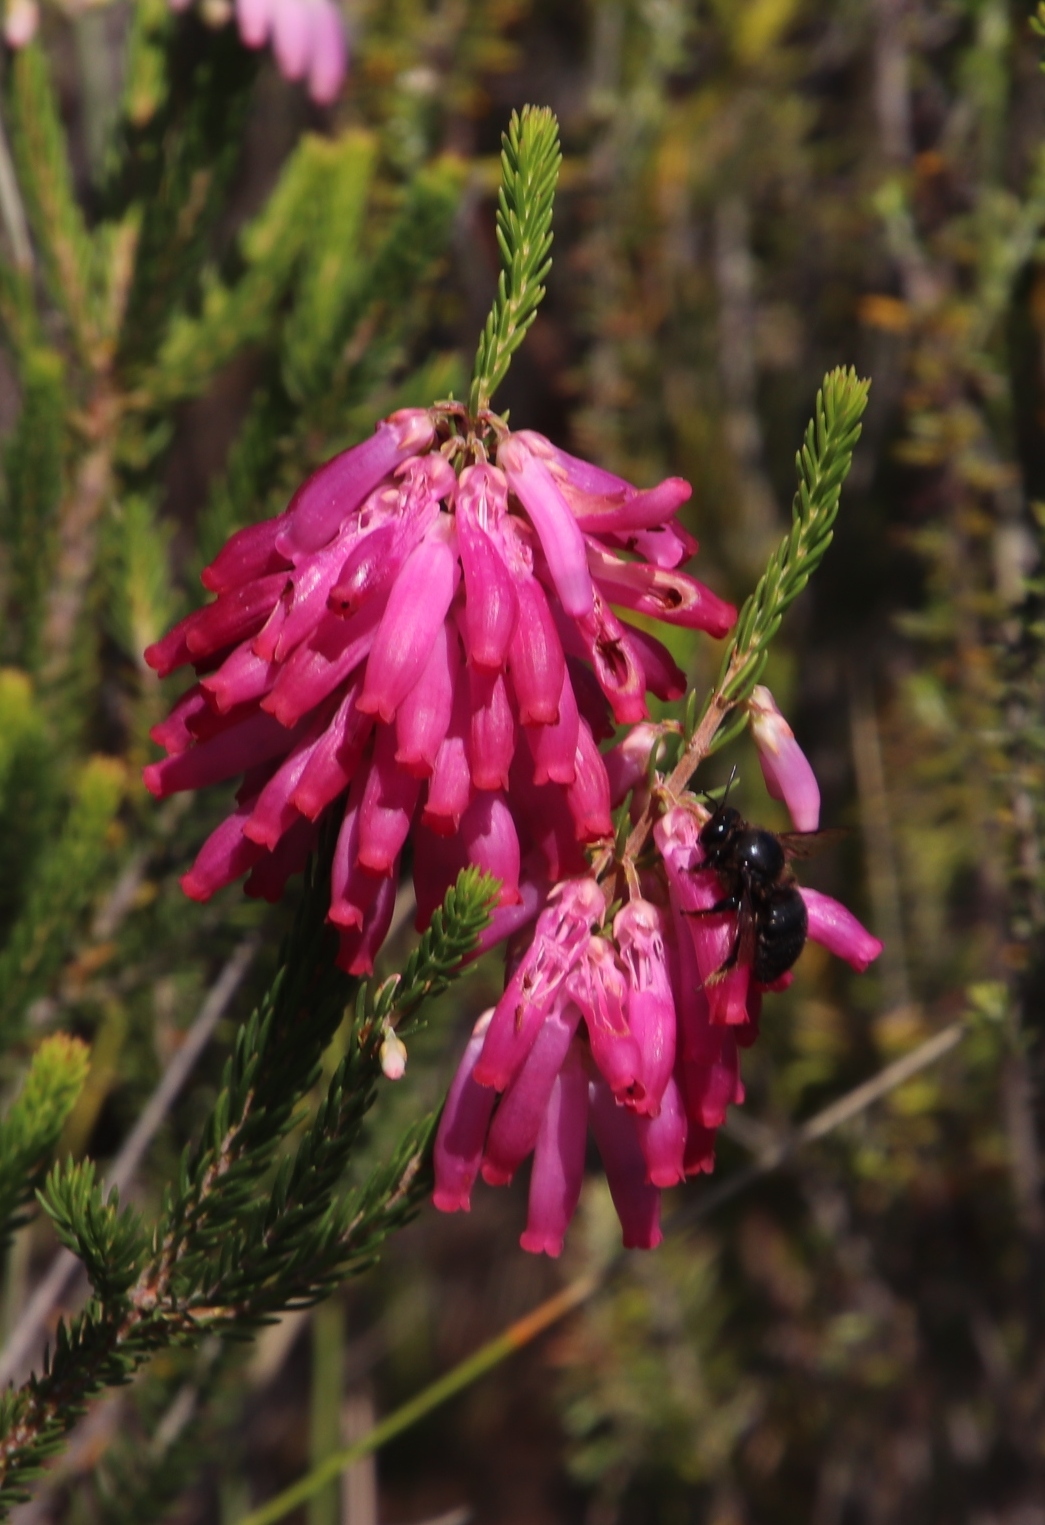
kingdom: Plantae
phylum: Tracheophyta
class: Magnoliopsida
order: Ericales
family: Ericaceae
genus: Erica
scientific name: Erica mammosa
